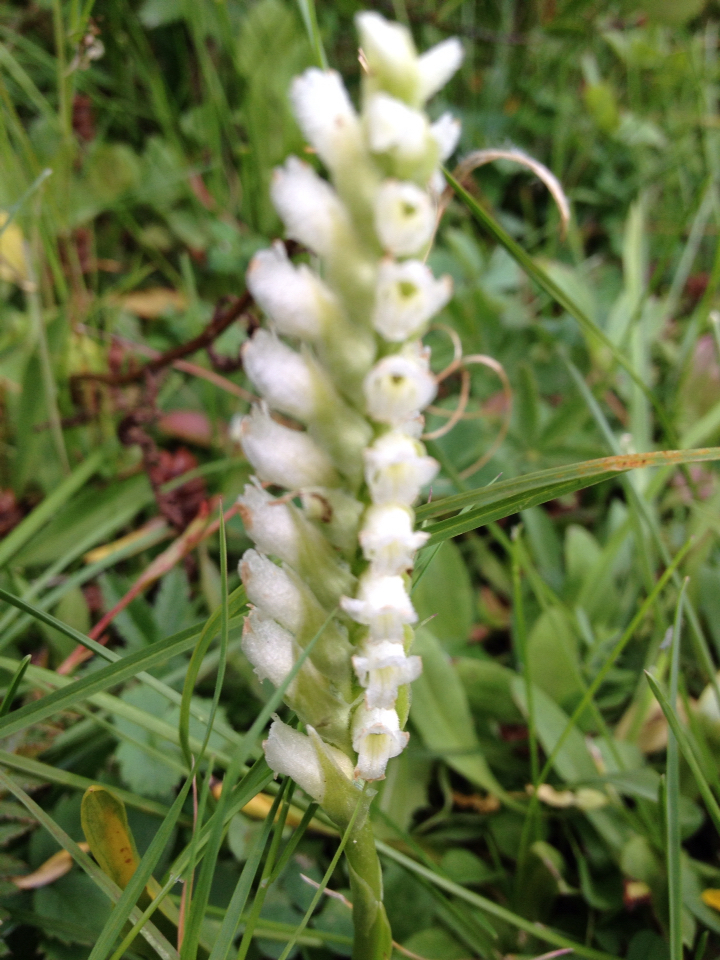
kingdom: Plantae
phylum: Tracheophyta
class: Liliopsida
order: Asparagales
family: Orchidaceae
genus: Spiranthes
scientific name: Spiranthes romanzoffiana
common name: Irish lady's-tresses
